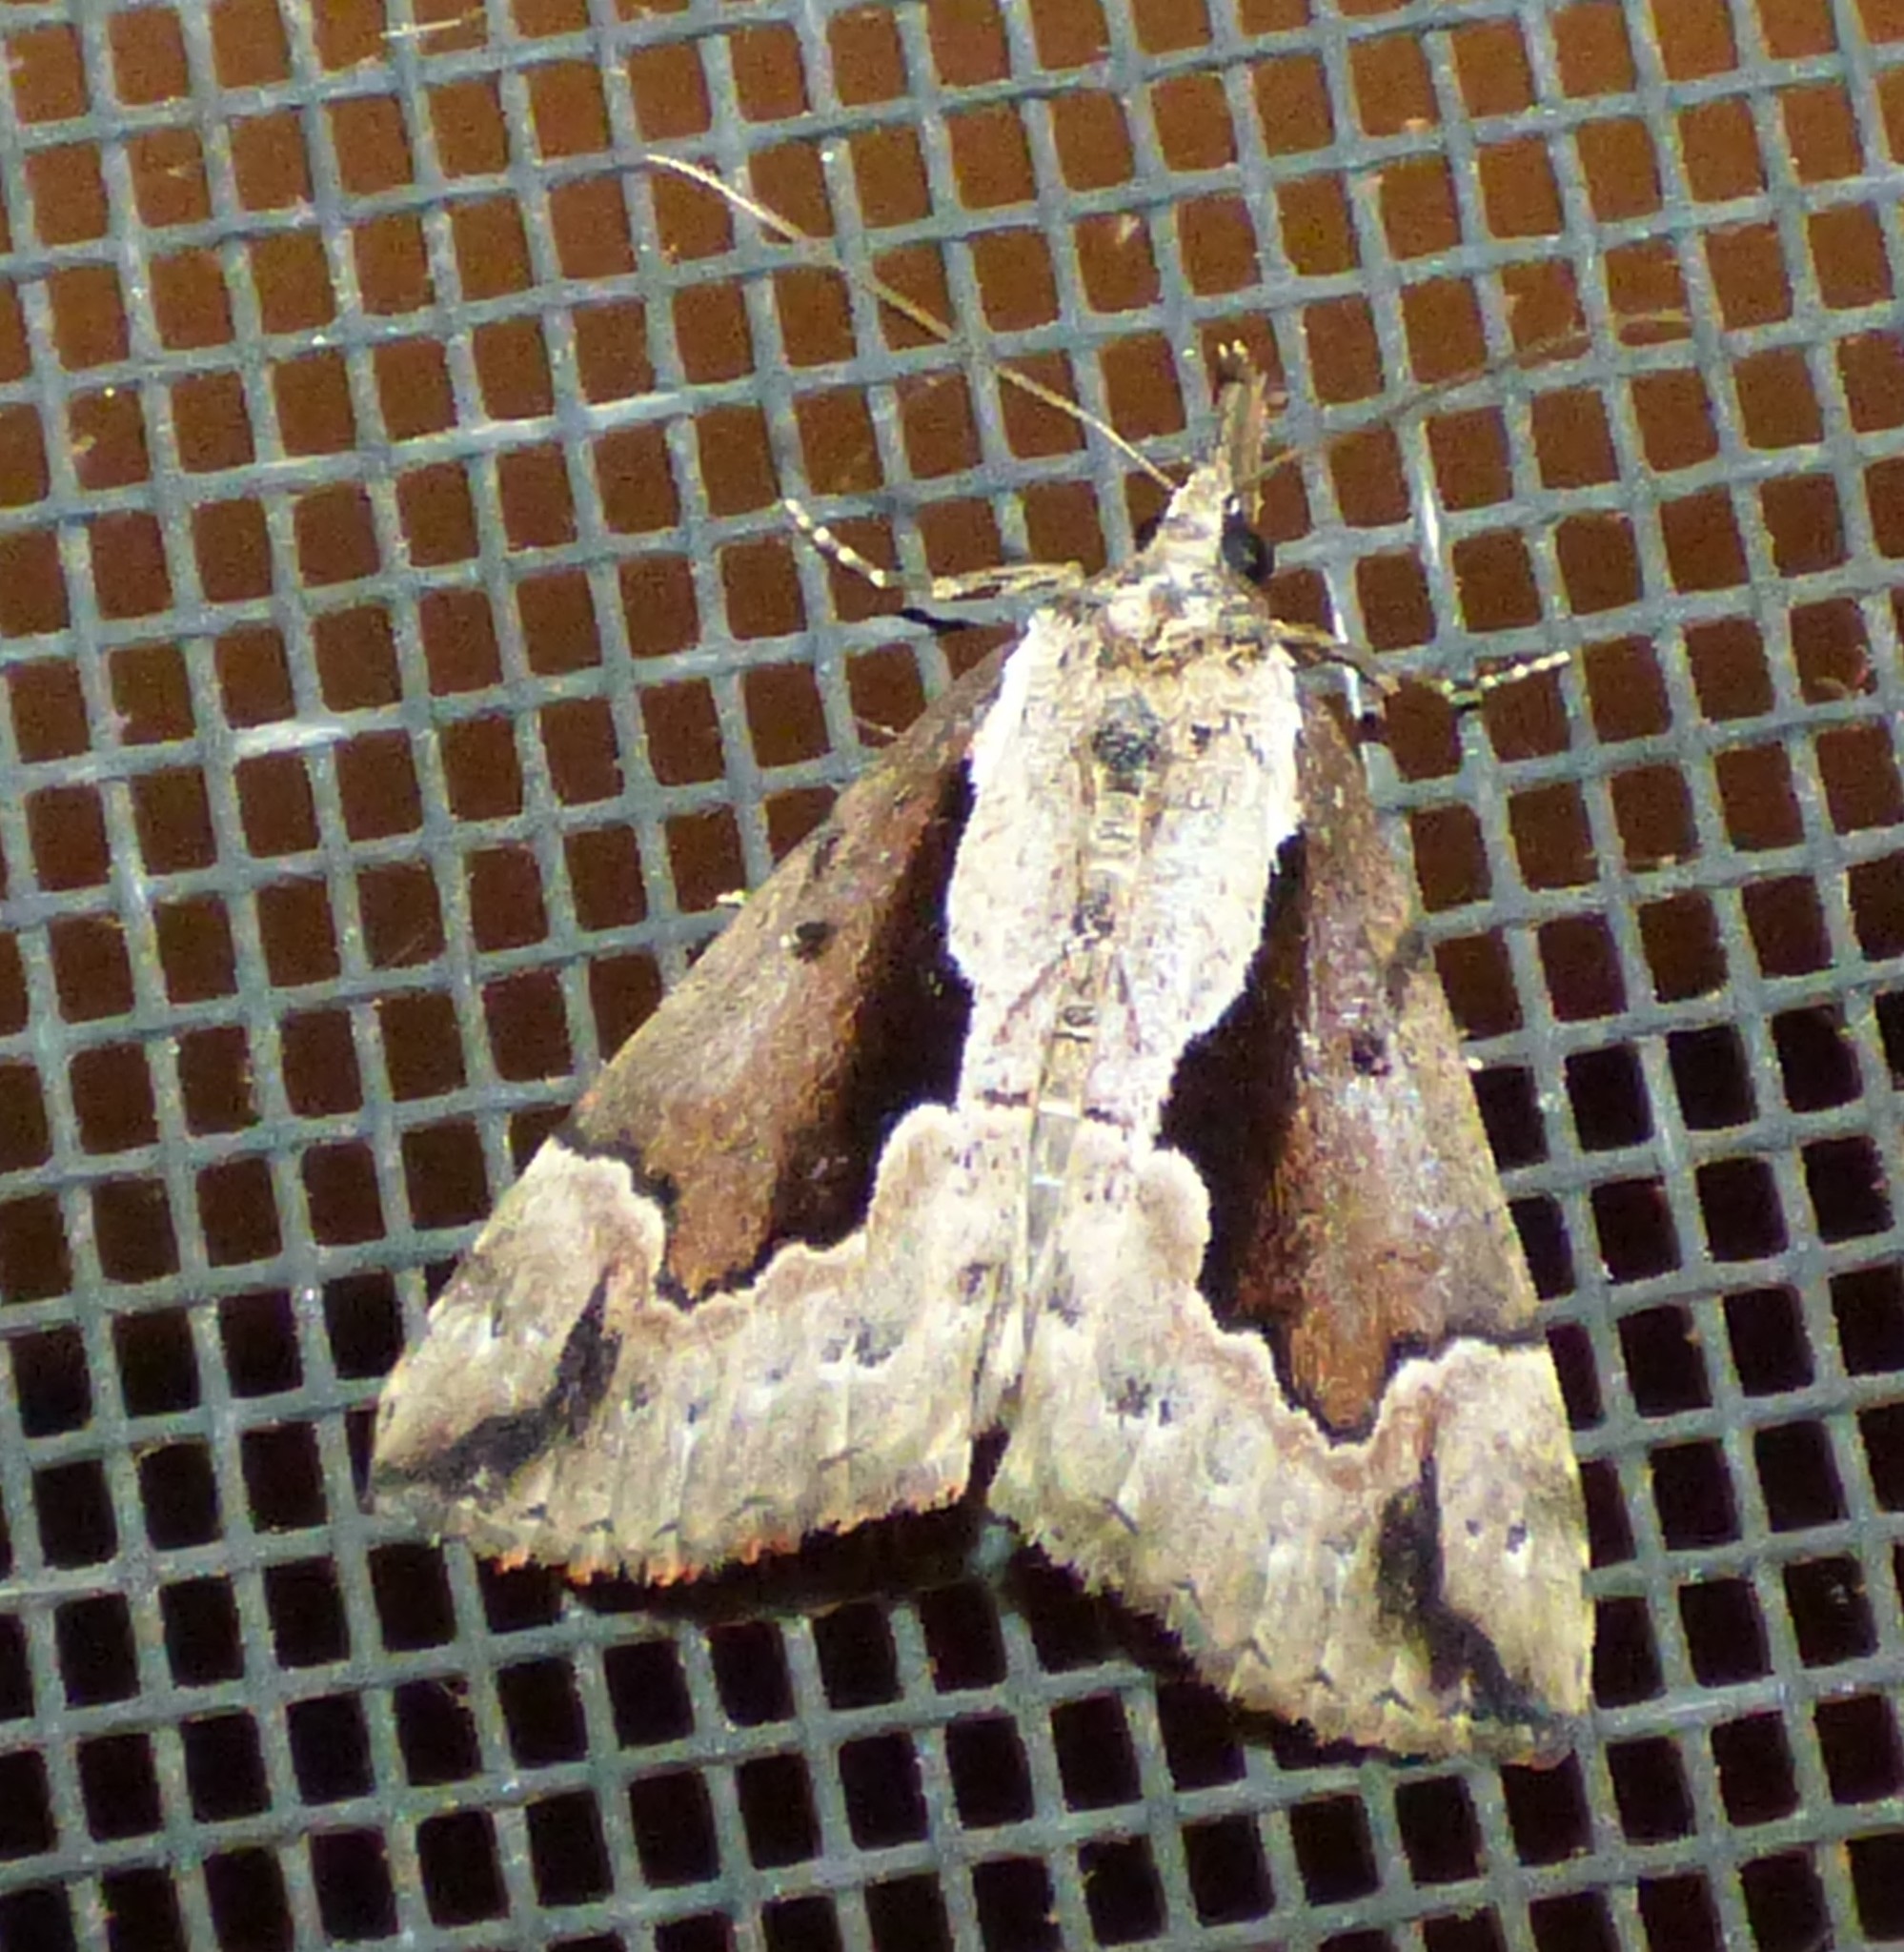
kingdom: Animalia
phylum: Arthropoda
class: Insecta
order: Lepidoptera
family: Erebidae
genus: Hypena
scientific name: Hypena baltimoralis
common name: Baltimore snout
